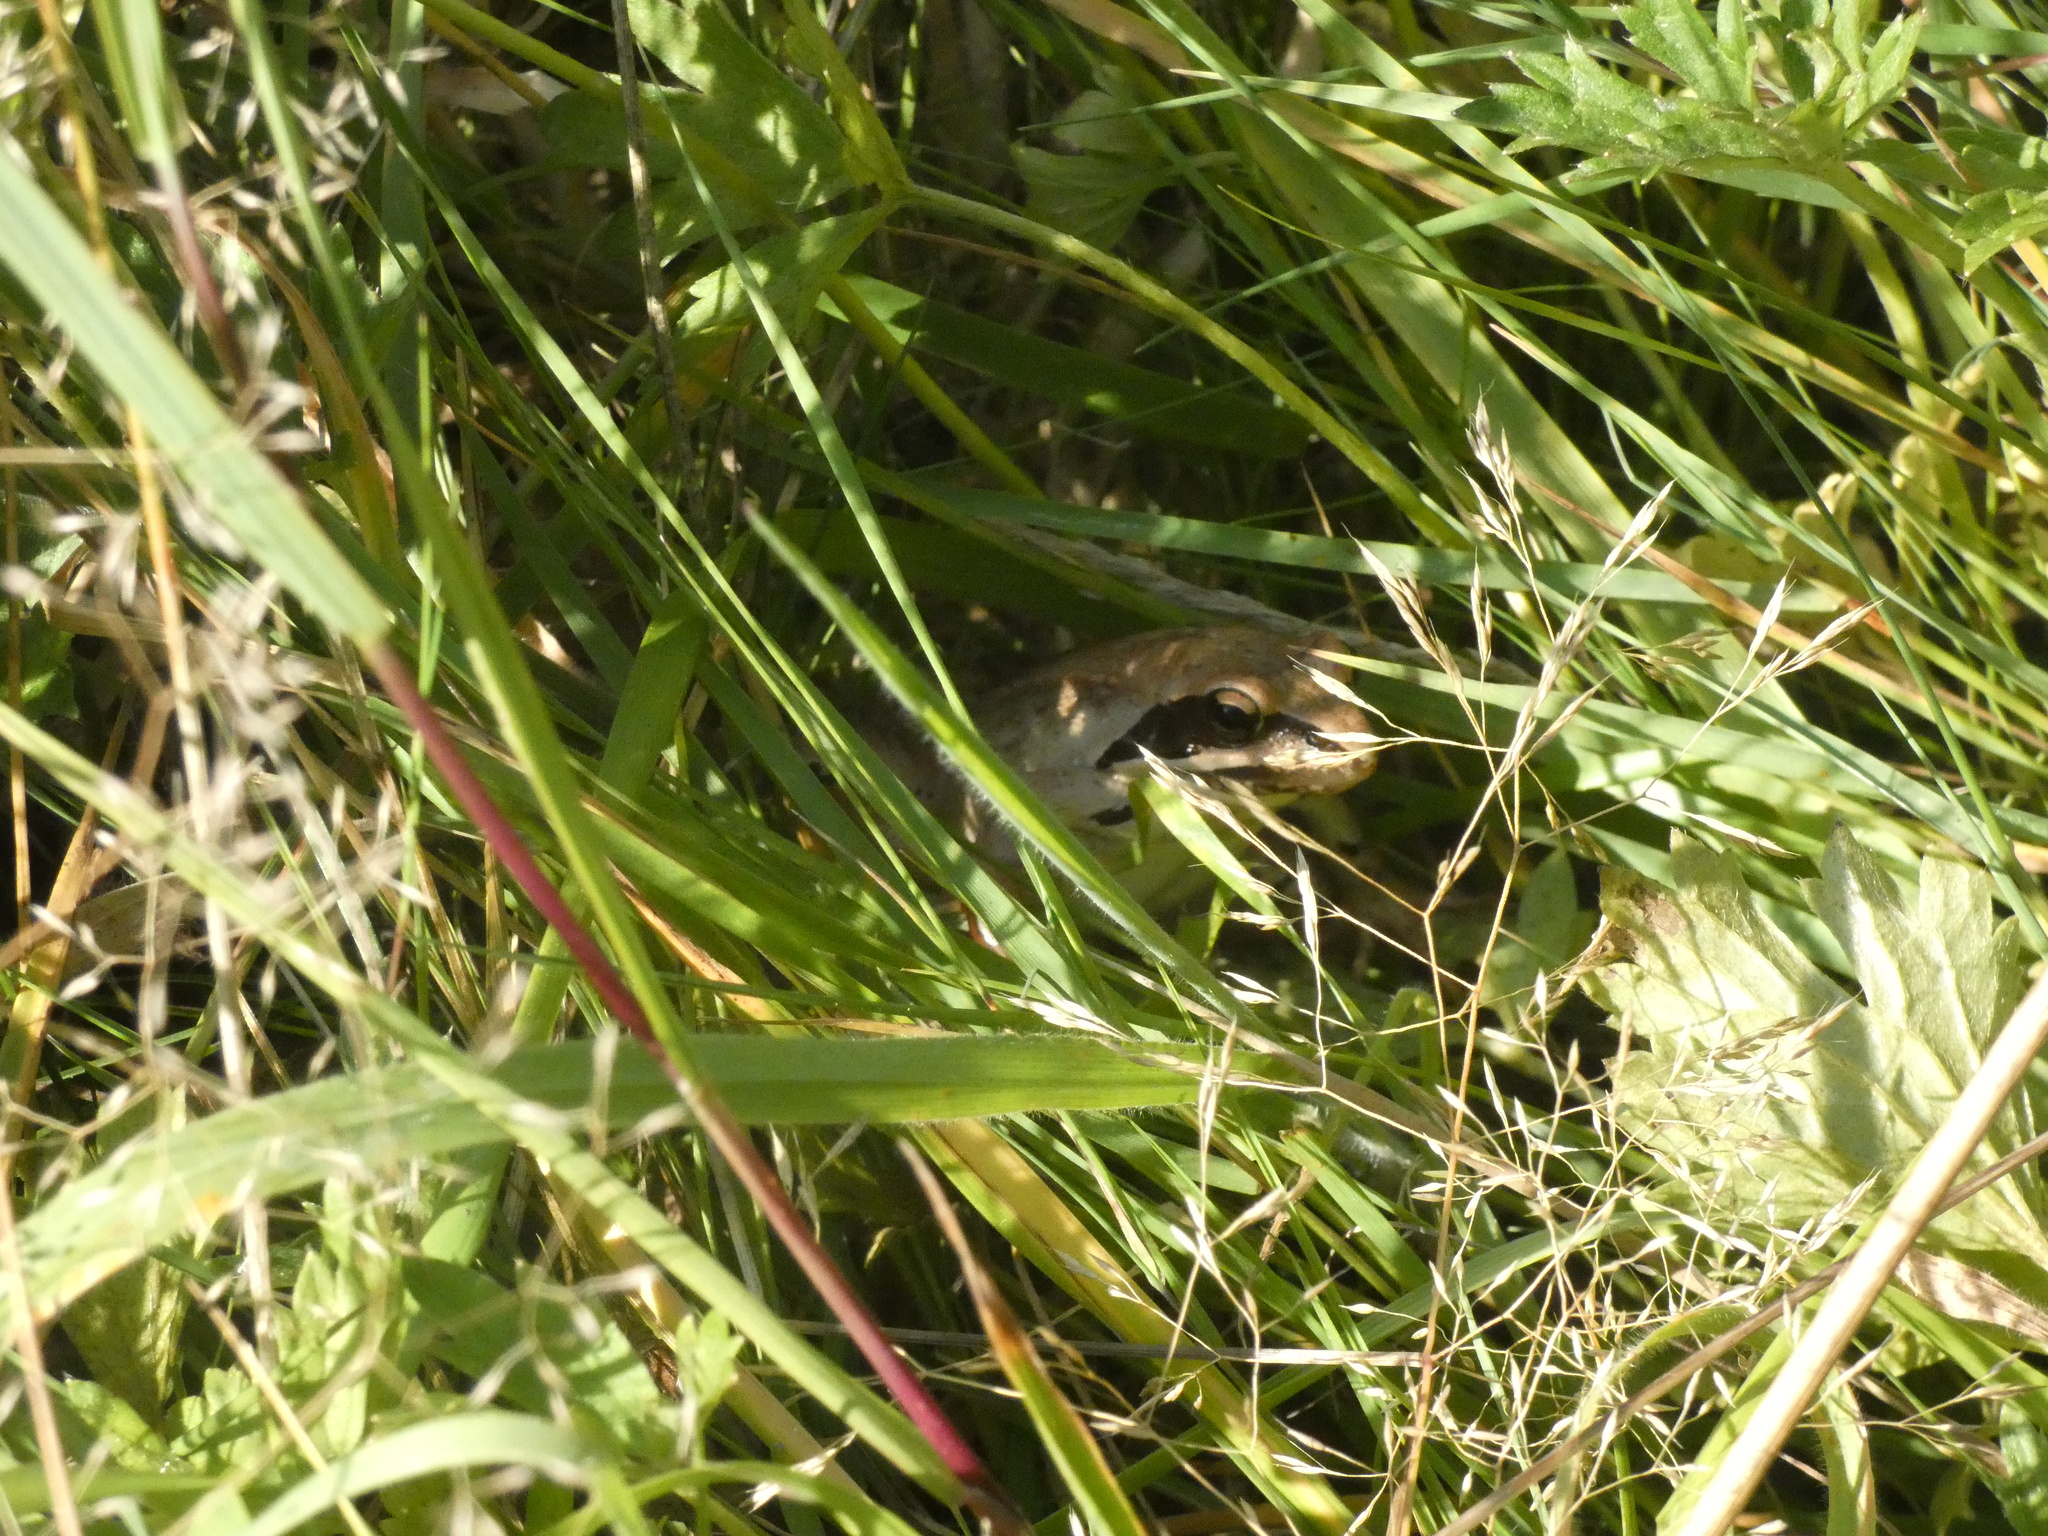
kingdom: Animalia
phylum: Chordata
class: Amphibia
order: Anura
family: Ranidae
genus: Rana
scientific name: Rana dalmatina
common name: Agile frog
